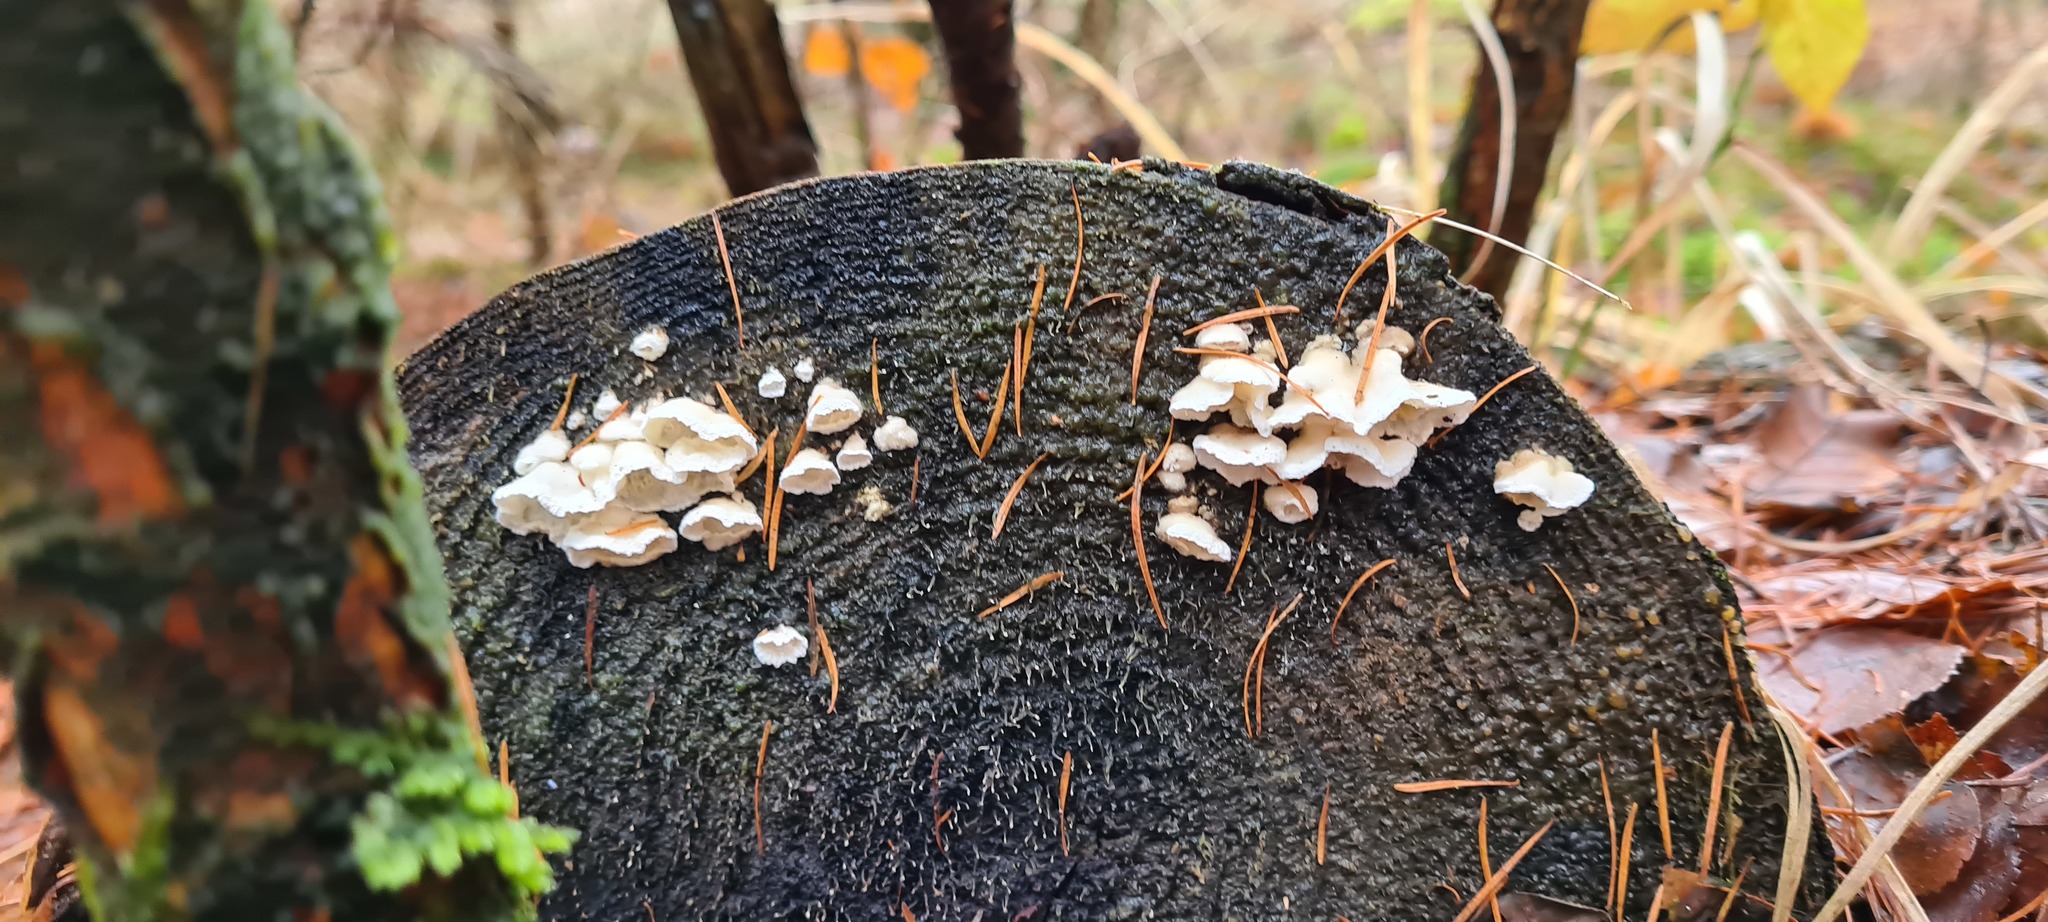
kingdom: Fungi
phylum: Basidiomycota
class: Agaricomycetes
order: Polyporales
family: Incrustoporiaceae
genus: Skeletocutis
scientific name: Skeletocutis amorpha
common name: Rusty crust
